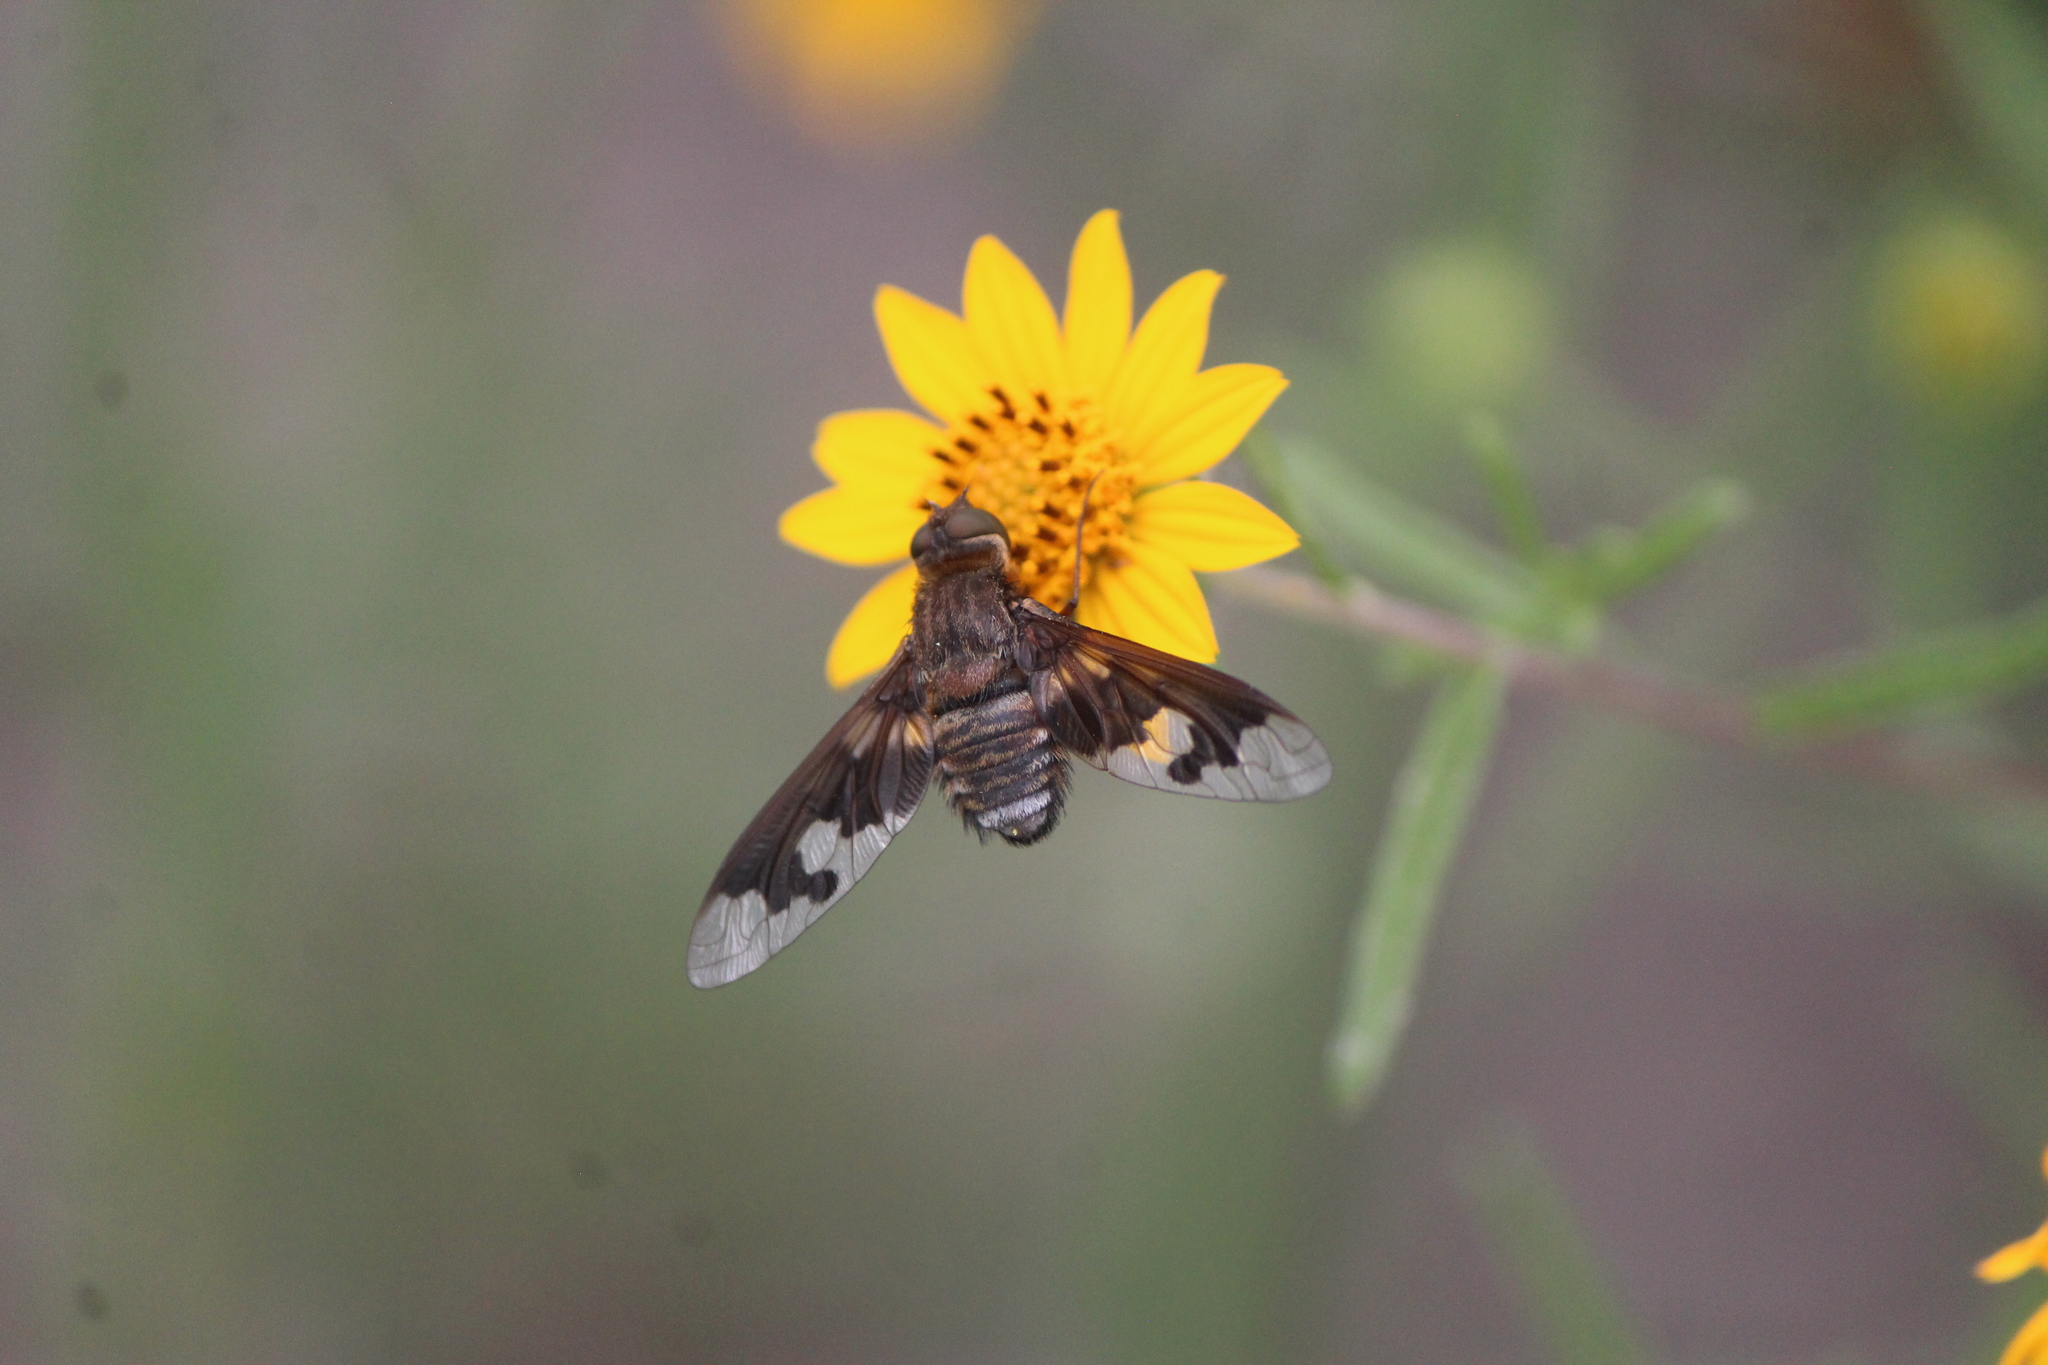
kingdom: Animalia
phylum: Arthropoda
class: Insecta
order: Diptera
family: Bombyliidae
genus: Exoprosopa
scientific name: Exoprosopa pueblensis
